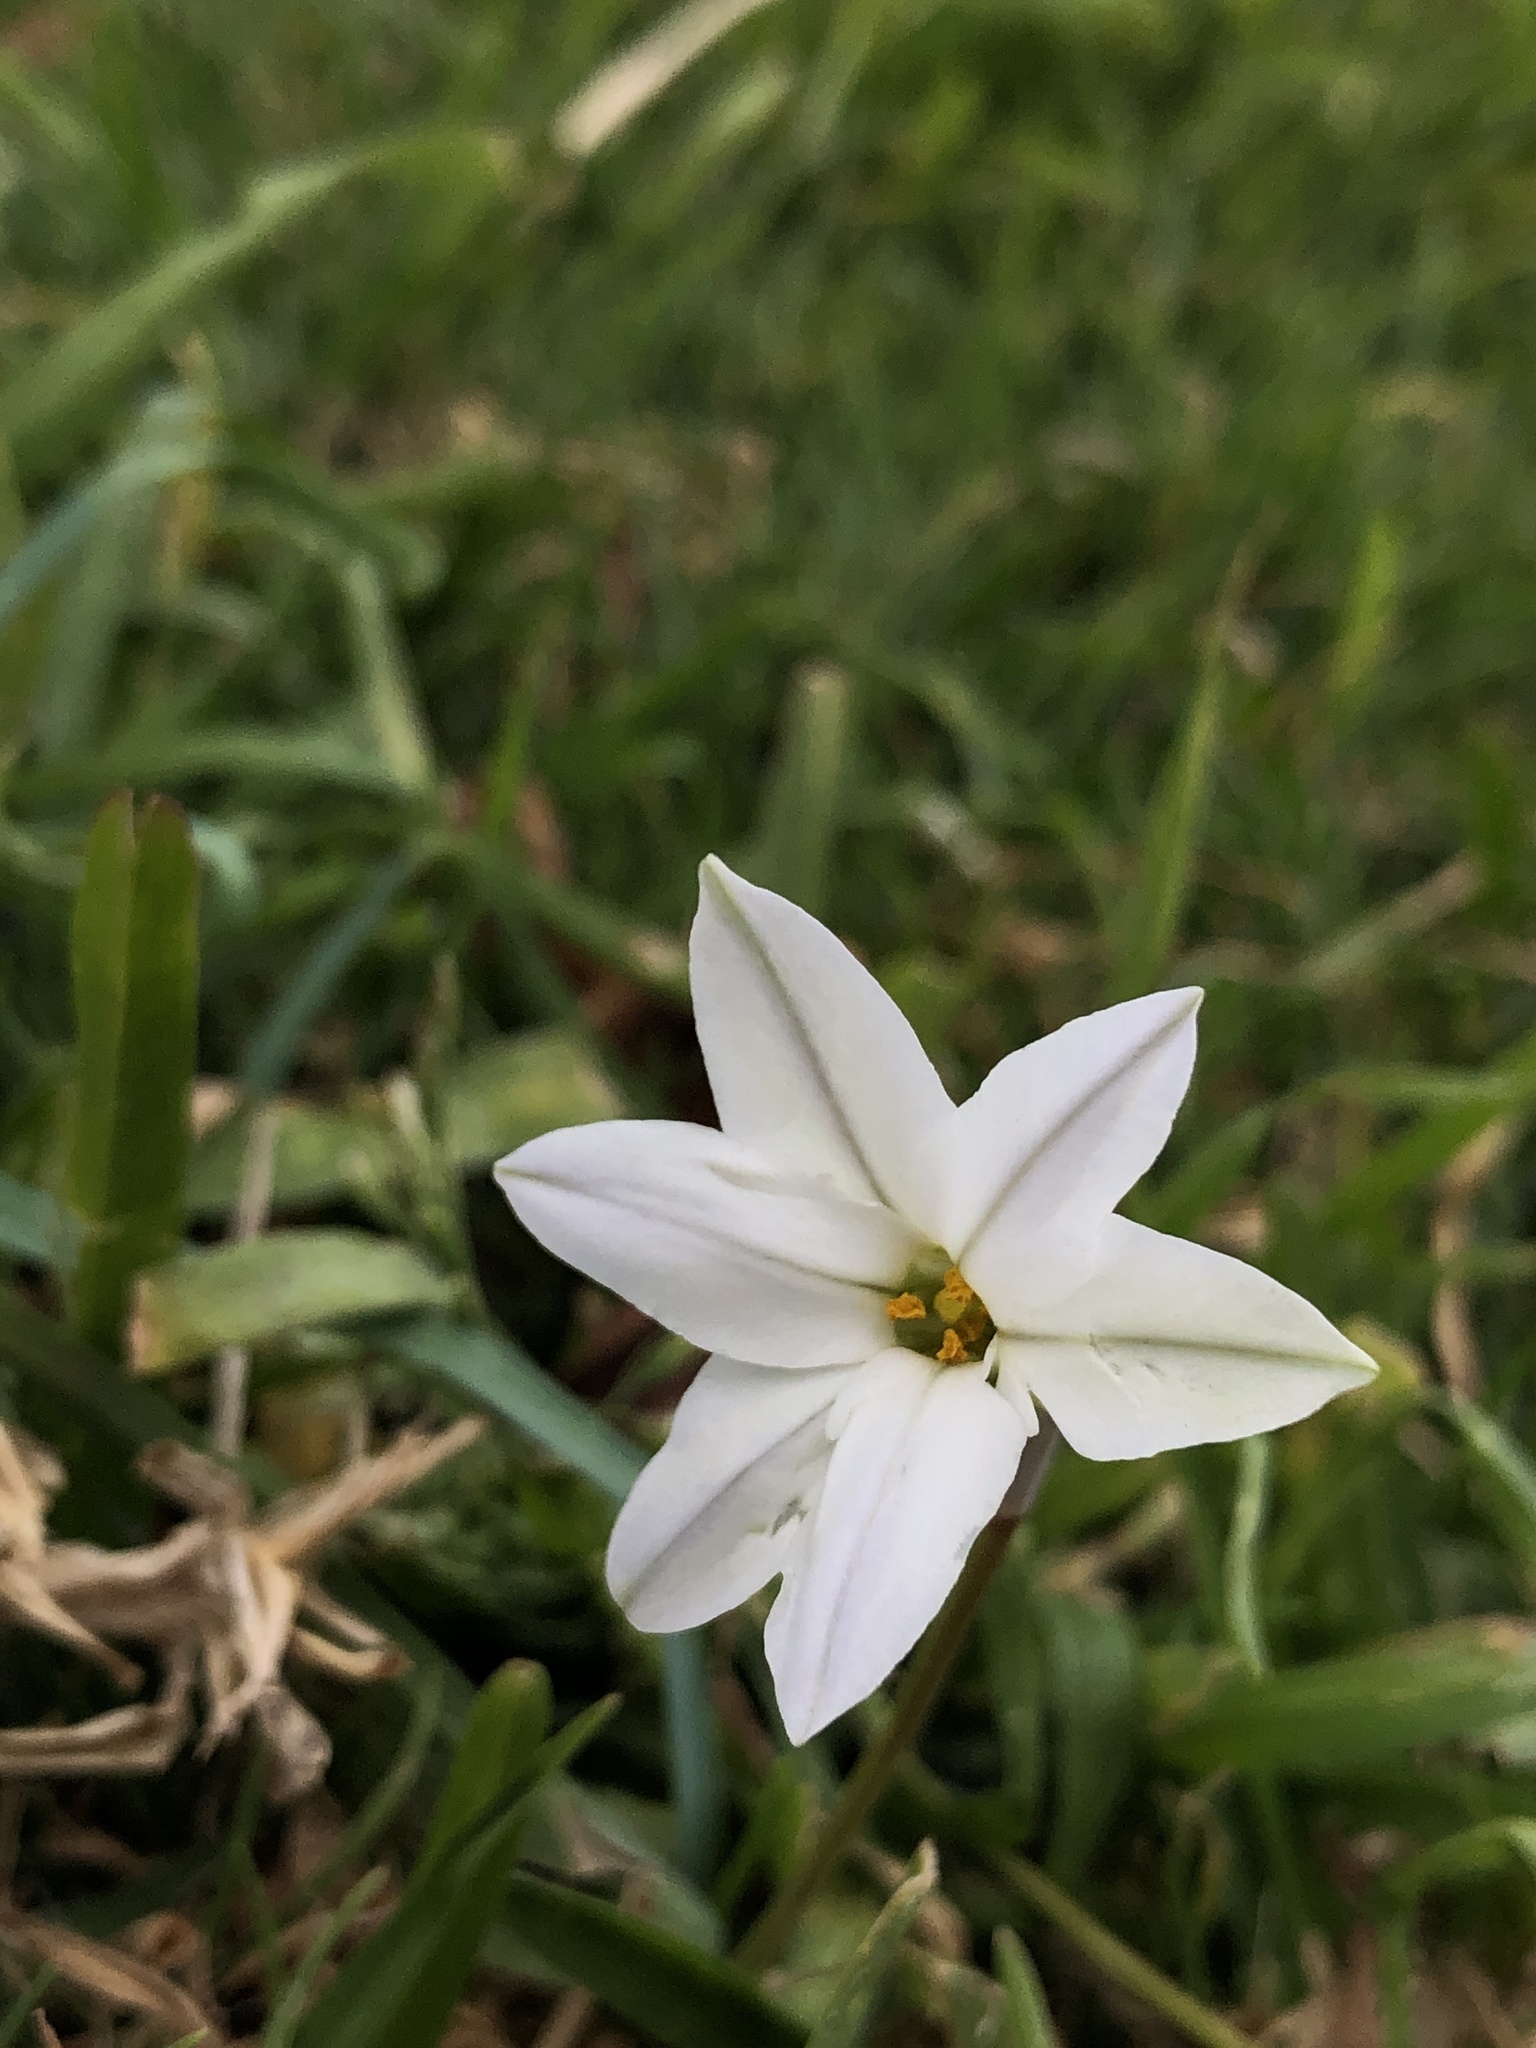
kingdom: Plantae
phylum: Tracheophyta
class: Liliopsida
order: Asparagales
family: Amaryllidaceae
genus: Ipheion
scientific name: Ipheion uniflorum
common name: Spring starflower
